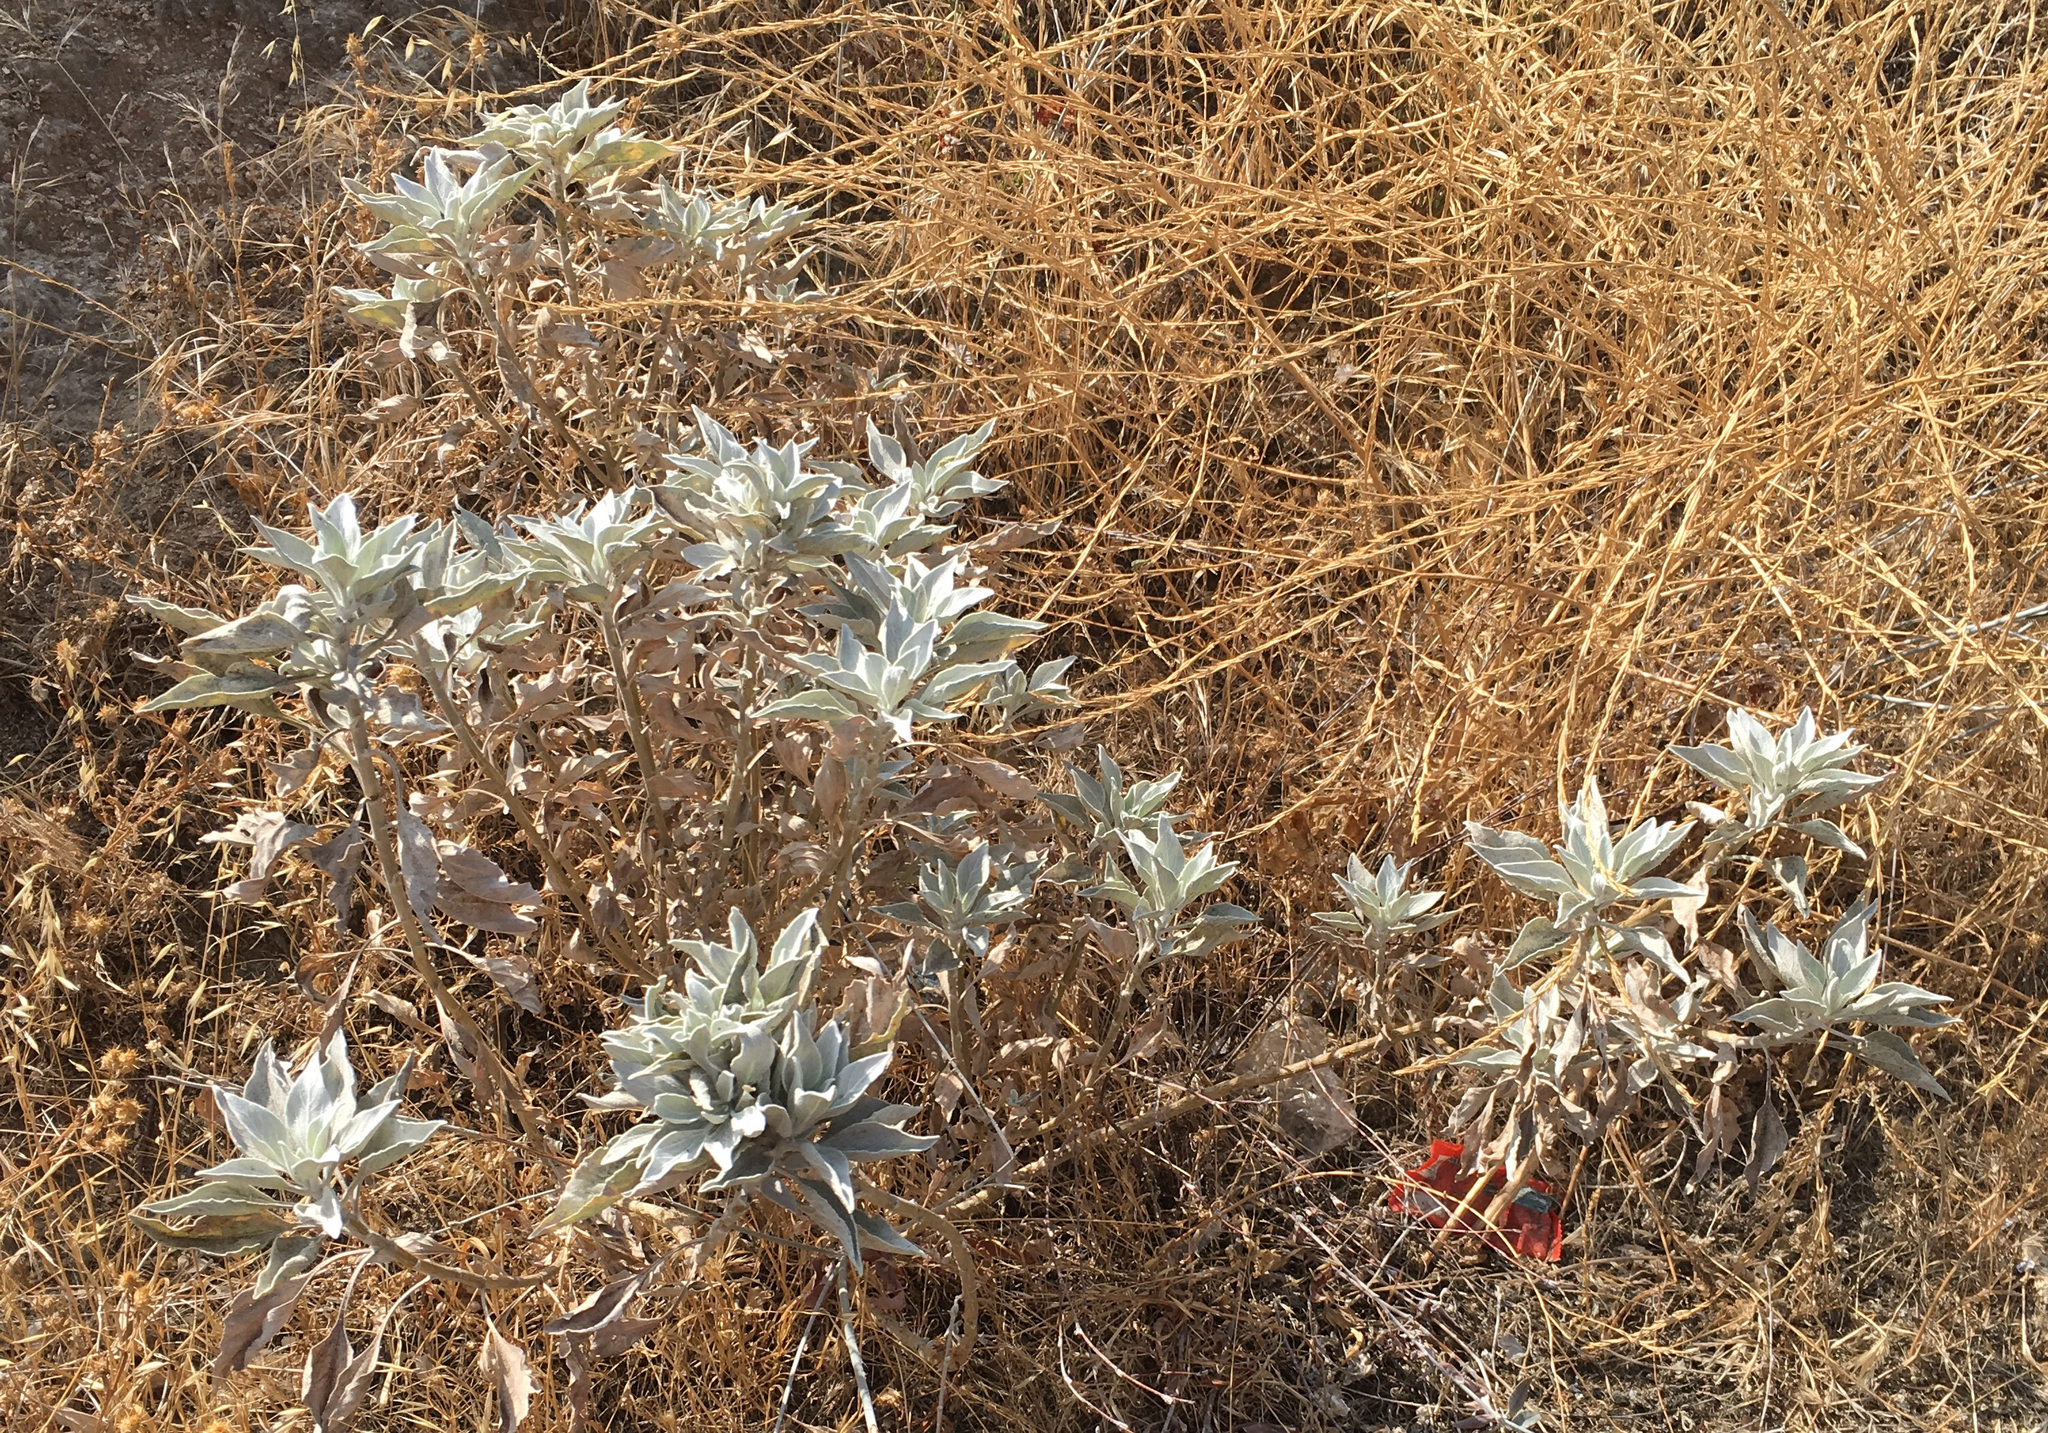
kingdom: Plantae
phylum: Tracheophyta
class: Magnoliopsida
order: Asterales
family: Asteraceae
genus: Encelia
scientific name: Encelia farinosa
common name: Brittlebush
